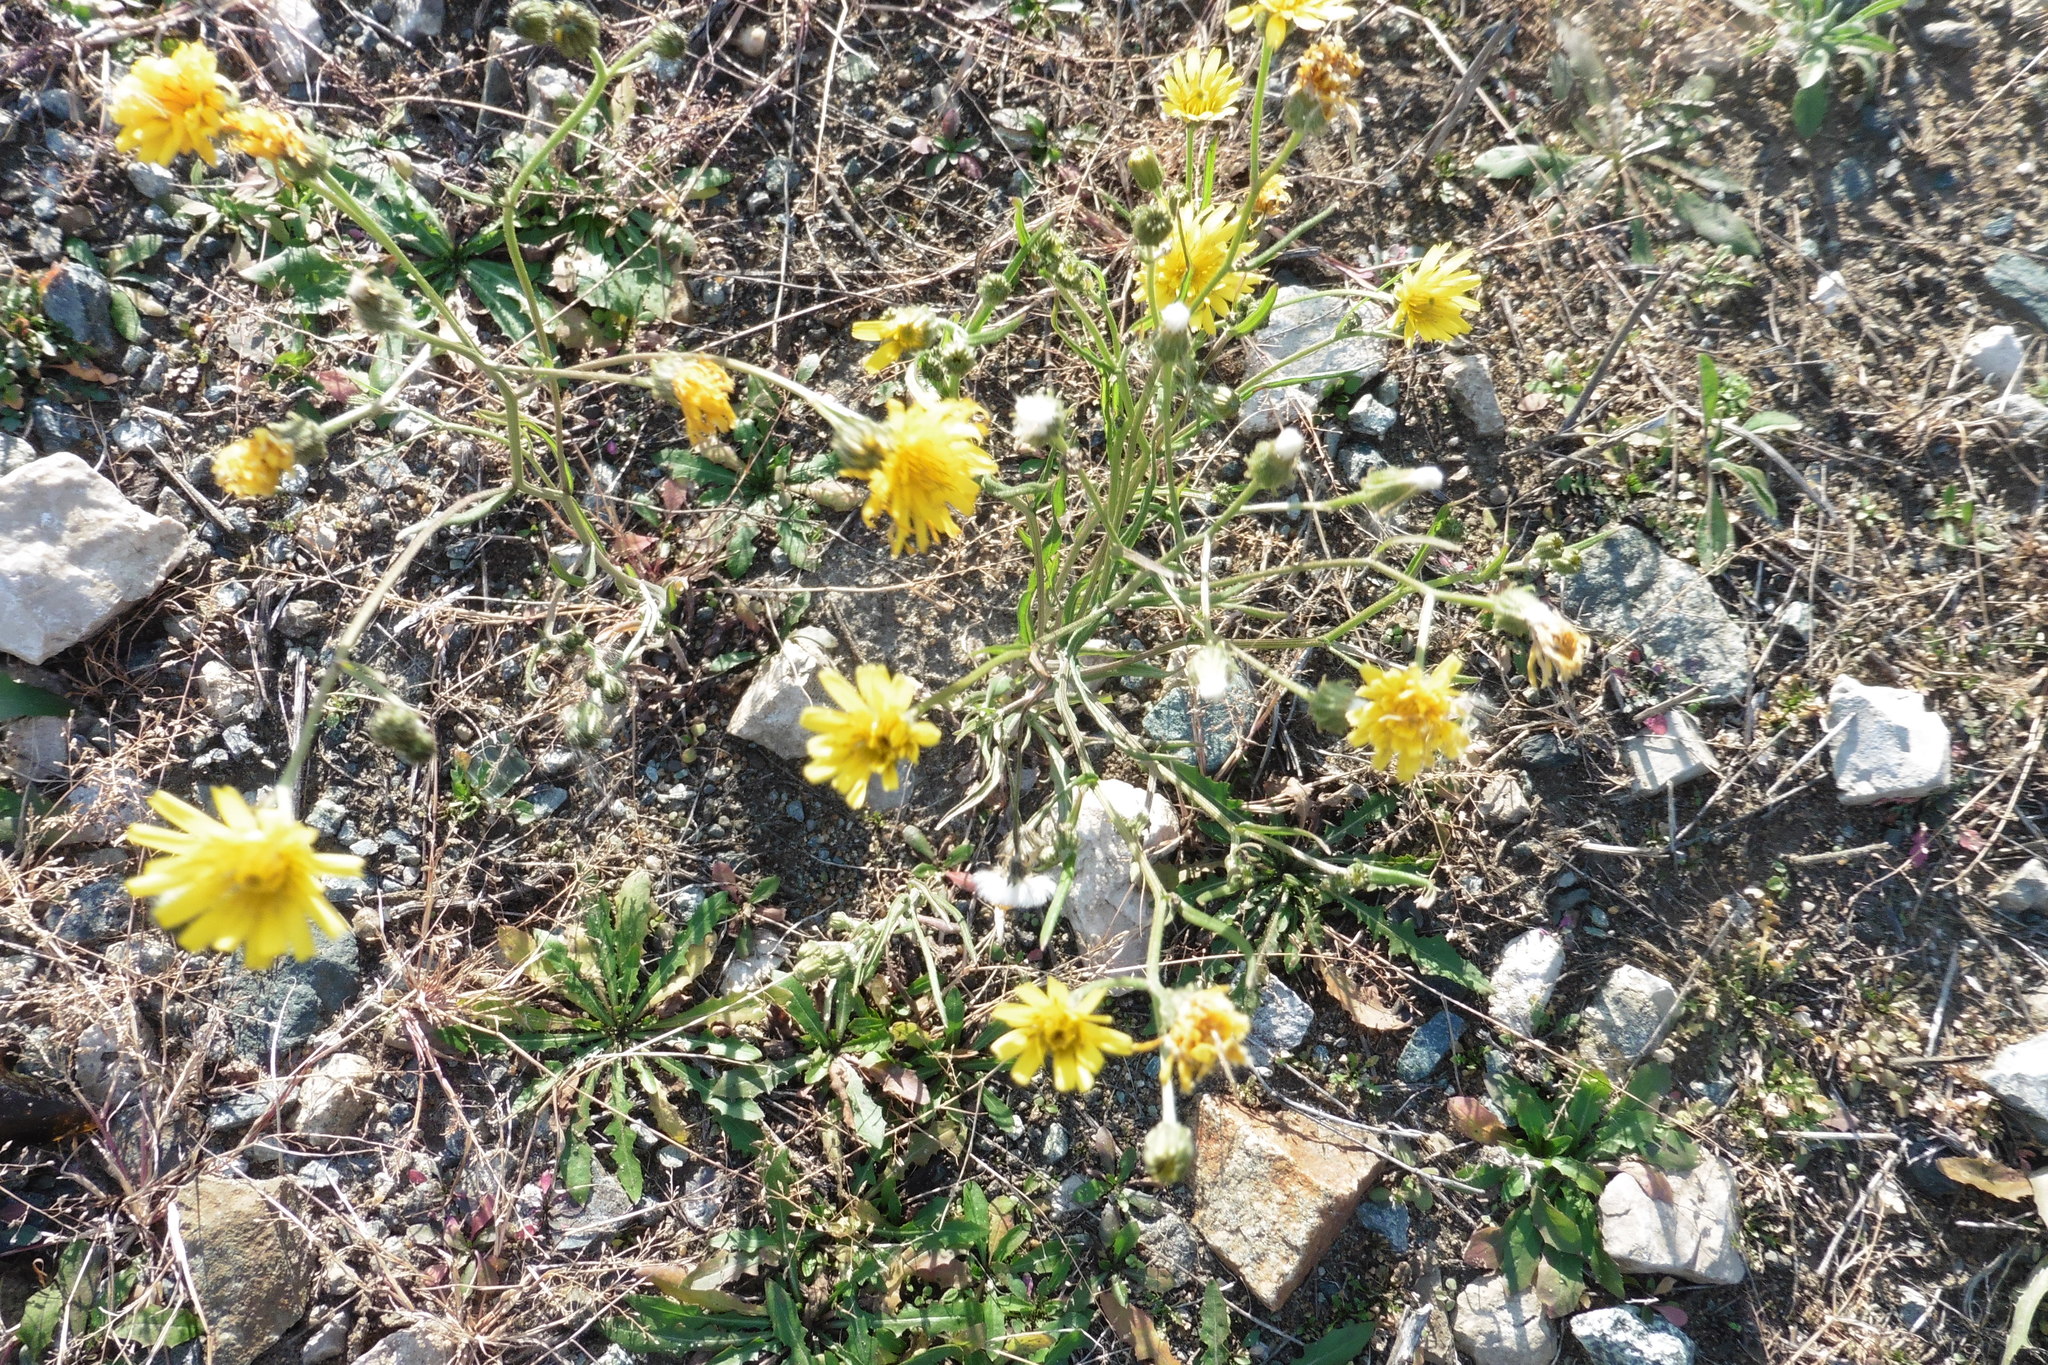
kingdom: Plantae
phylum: Tracheophyta
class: Magnoliopsida
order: Asterales
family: Asteraceae
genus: Crepis
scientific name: Crepis tectorum
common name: Narrow-leaved hawk's-beard
